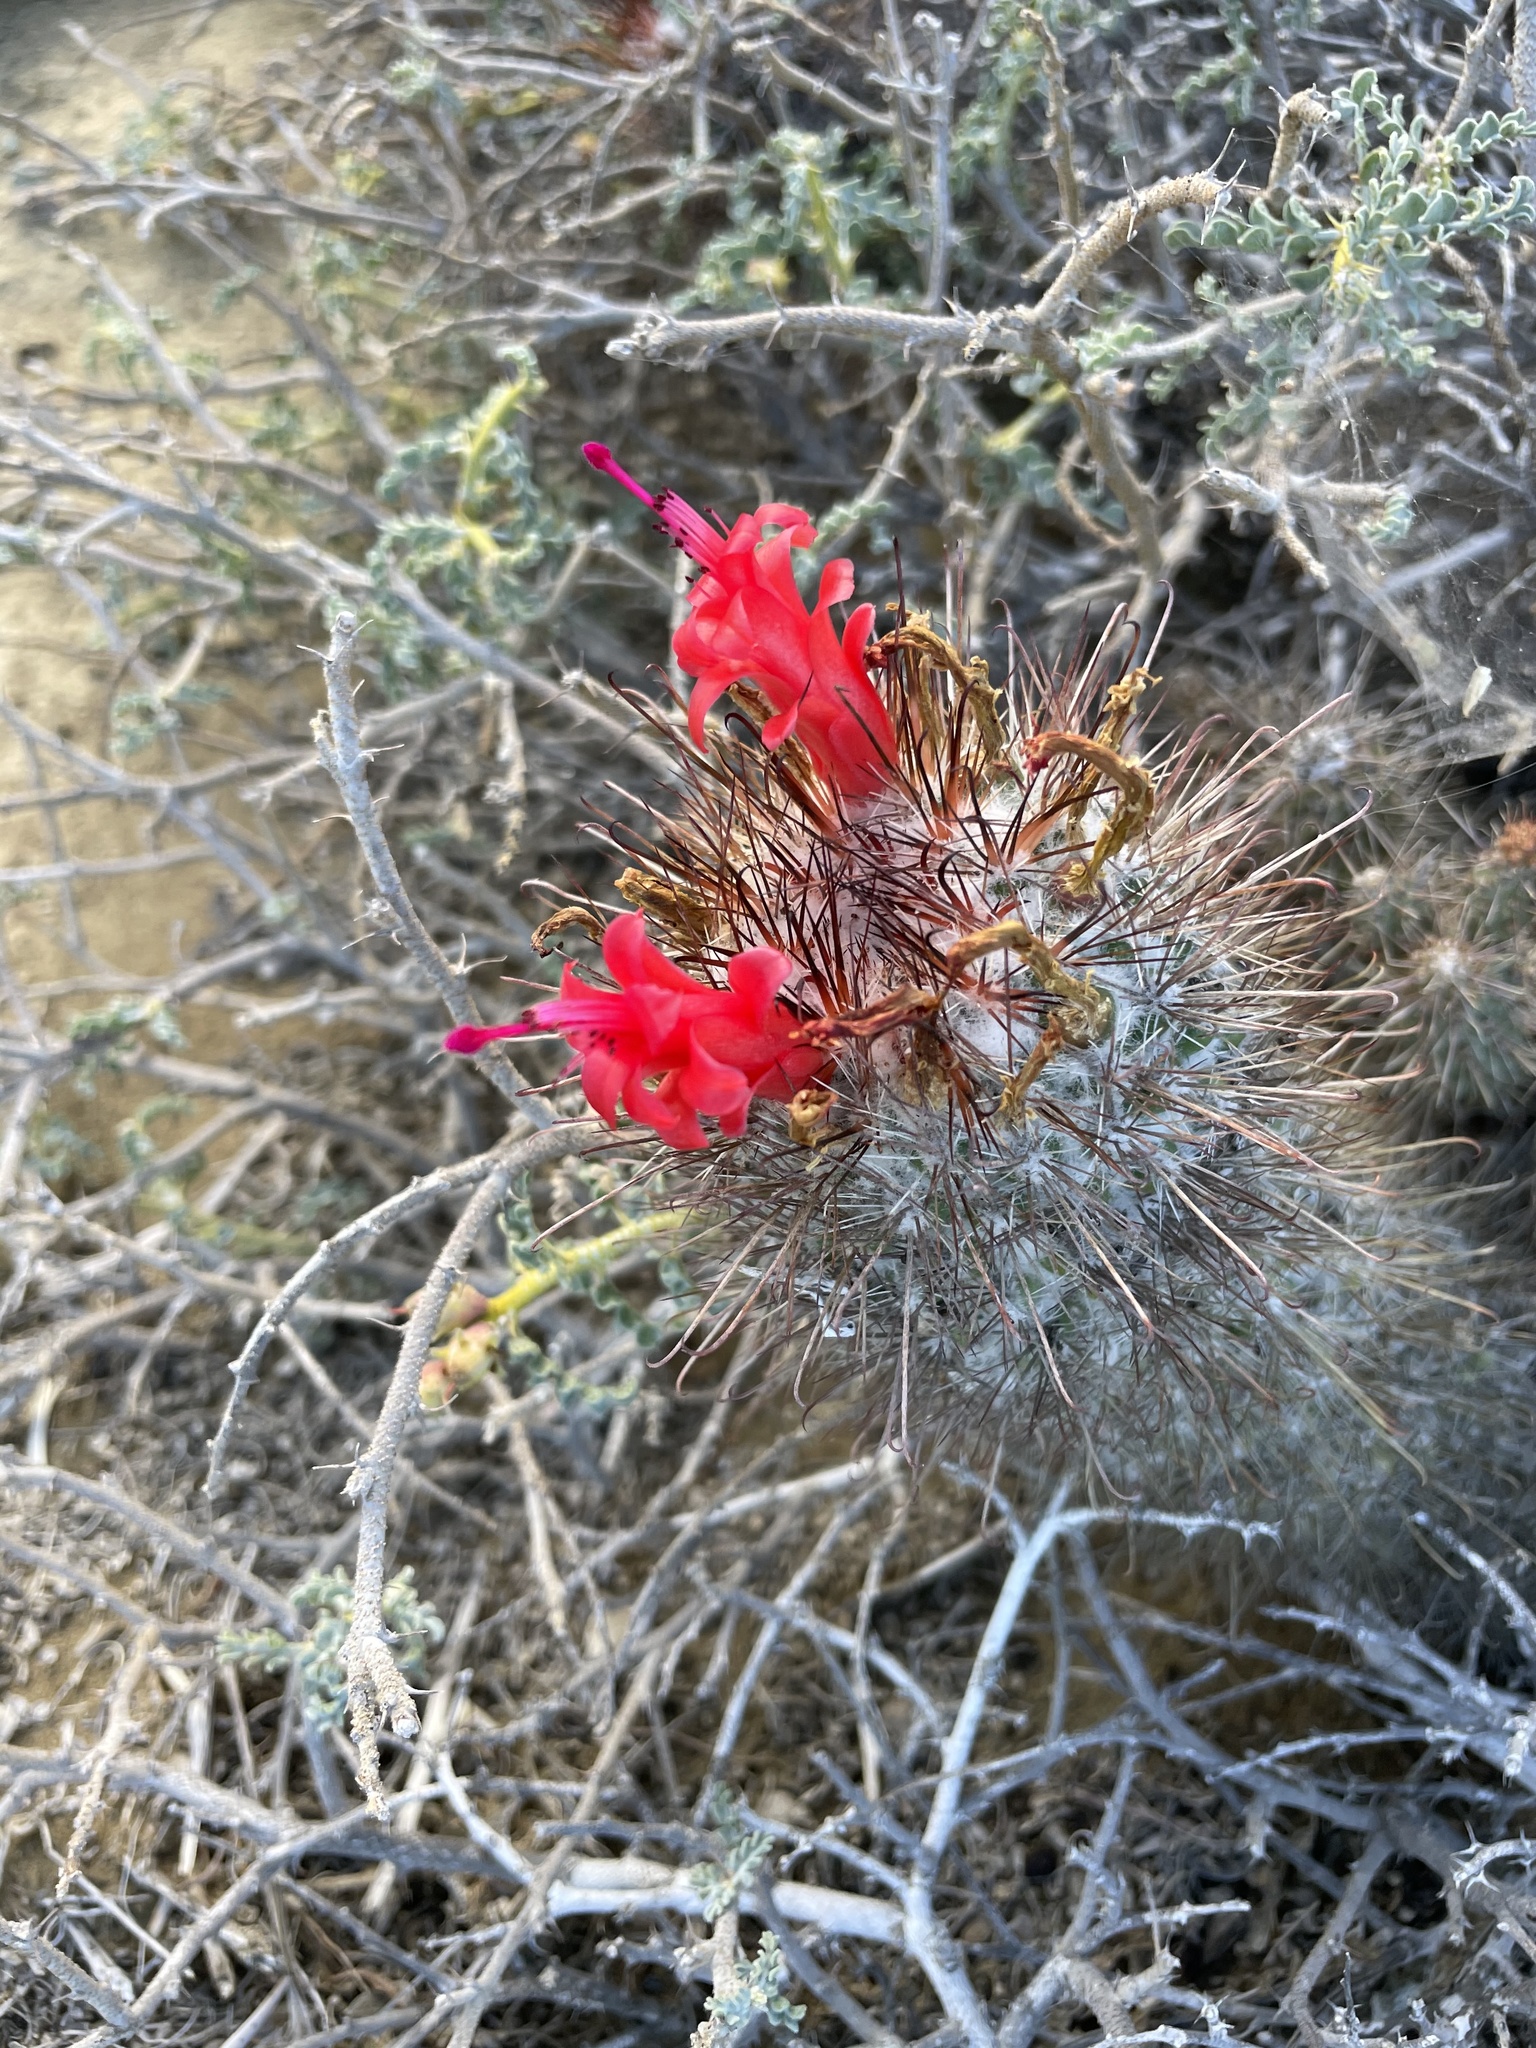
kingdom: Plantae
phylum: Tracheophyta
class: Magnoliopsida
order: Caryophyllales
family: Cactaceae
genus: Cochemiea
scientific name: Cochemiea pondii
